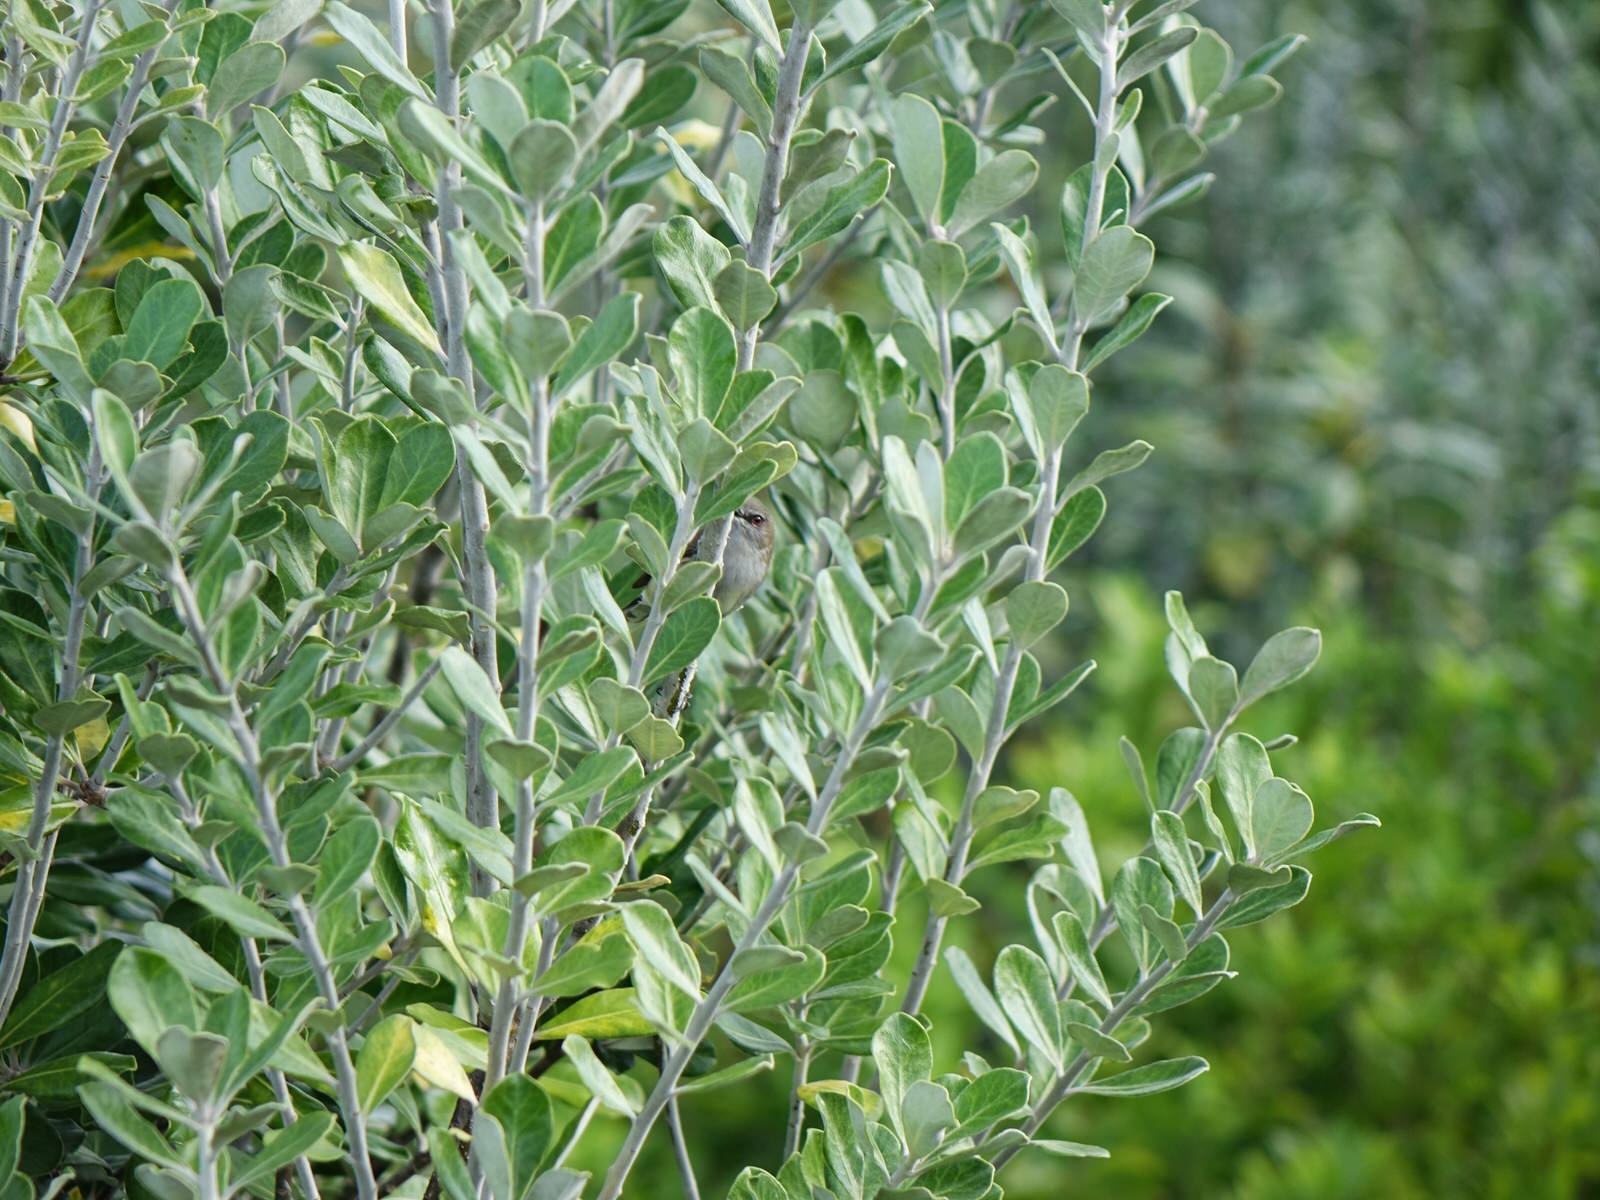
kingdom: Animalia
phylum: Chordata
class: Aves
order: Passeriformes
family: Acanthizidae
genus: Gerygone
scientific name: Gerygone igata
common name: Grey gerygone
